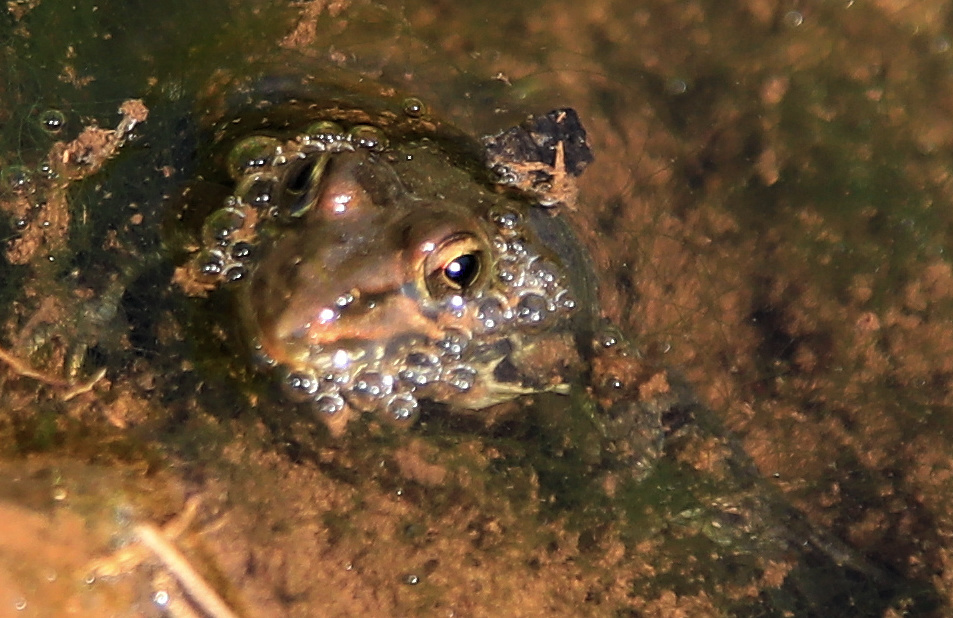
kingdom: Animalia
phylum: Chordata
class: Amphibia
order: Anura
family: Pyxicephalidae
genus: Amietia
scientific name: Amietia delalandii
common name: Delalande's river frog
